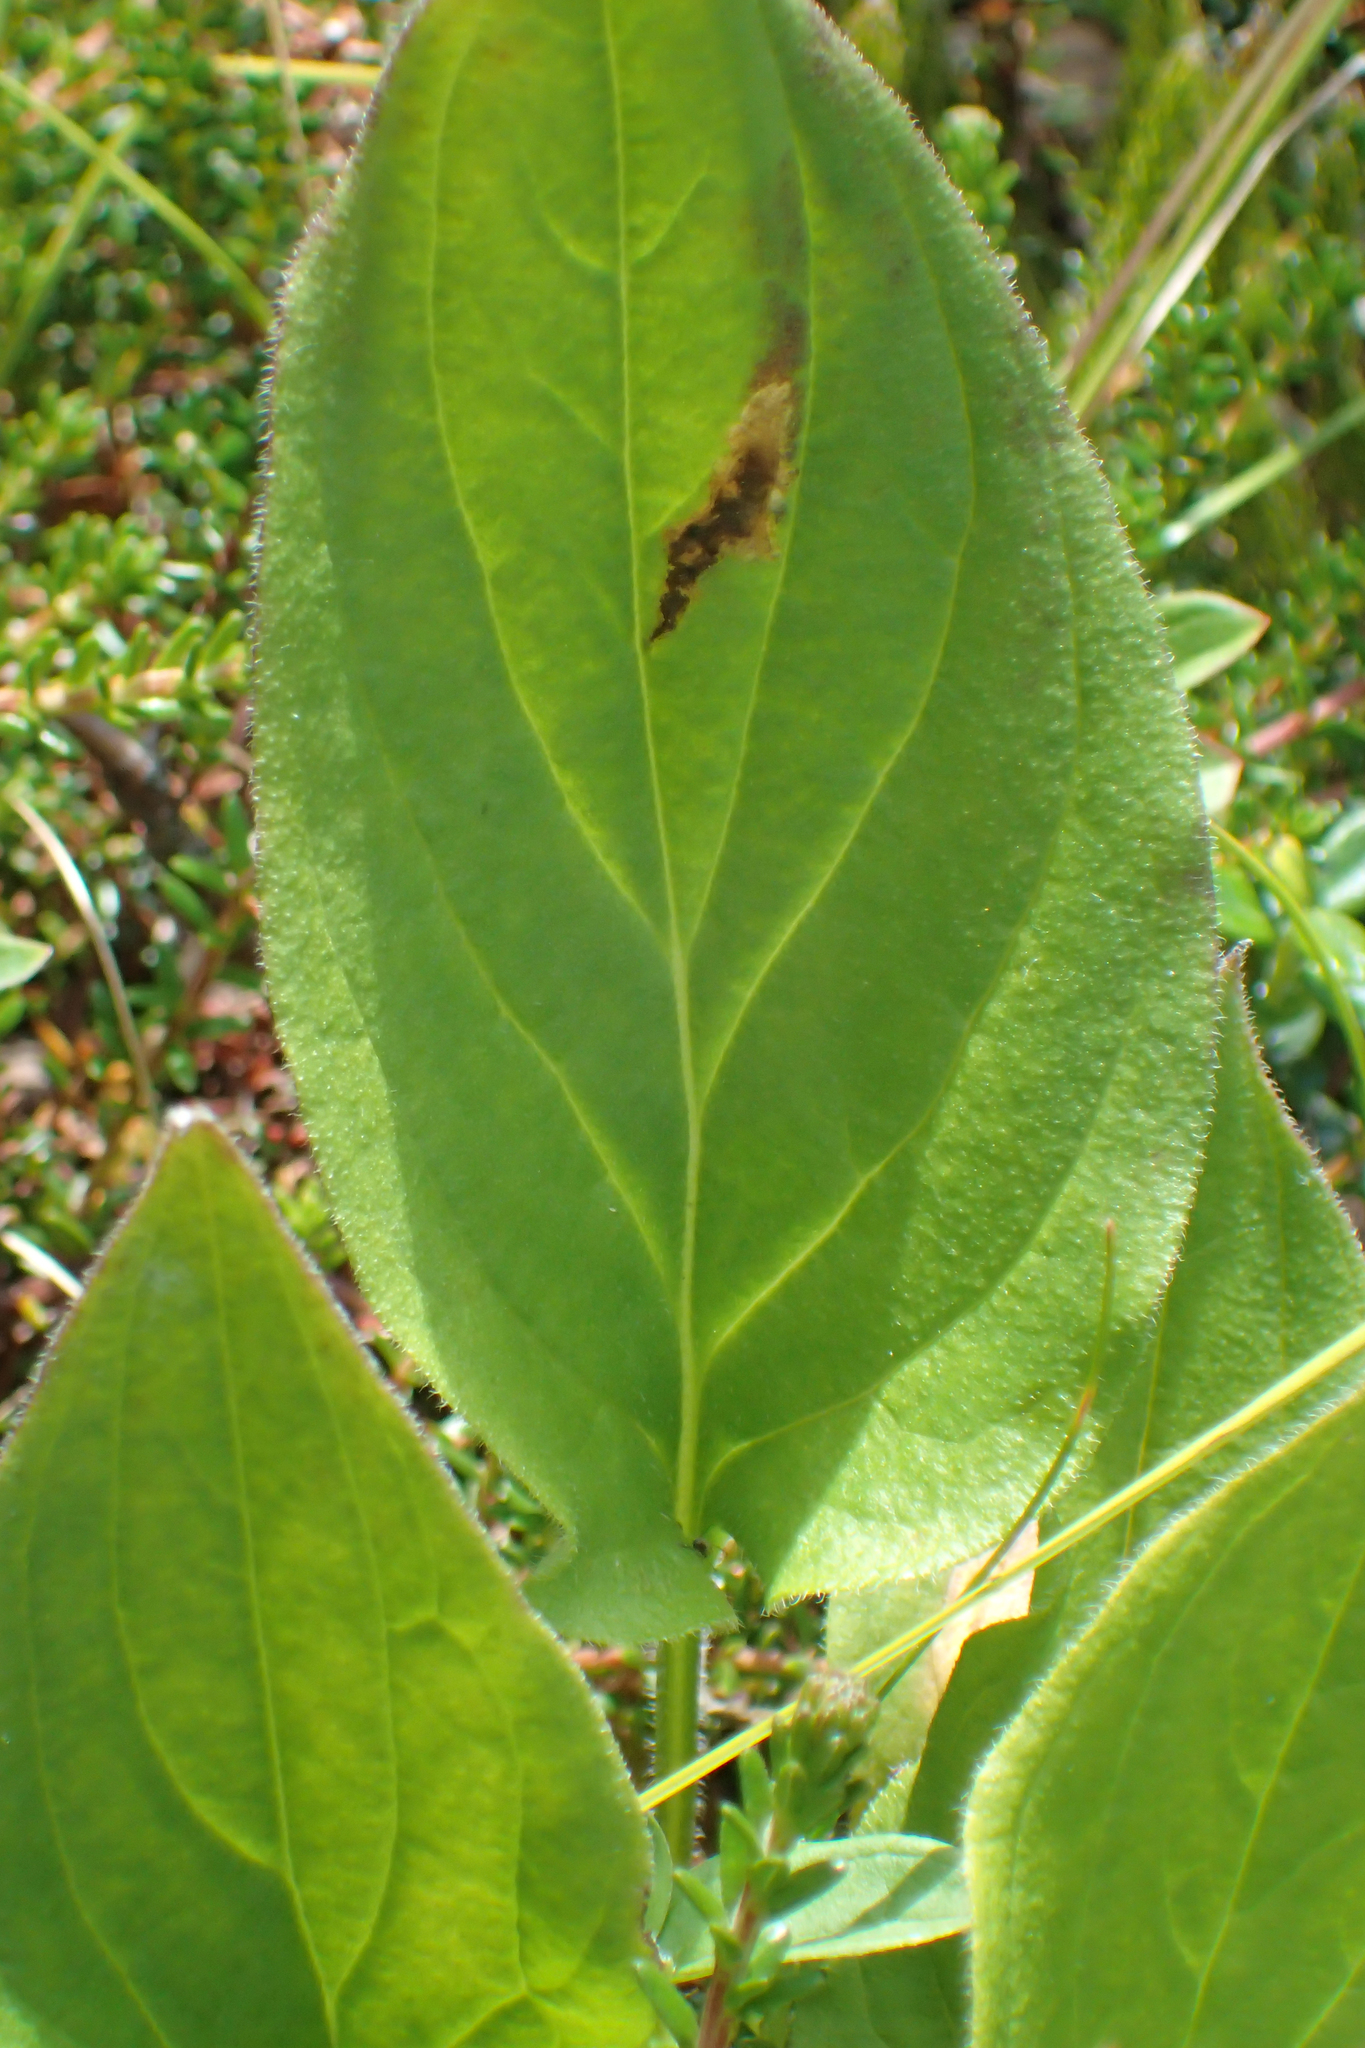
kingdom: Plantae
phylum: Tracheophyta
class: Magnoliopsida
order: Boraginales
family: Boraginaceae
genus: Mertensia
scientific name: Mertensia paniculata
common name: Panicled bluebells
